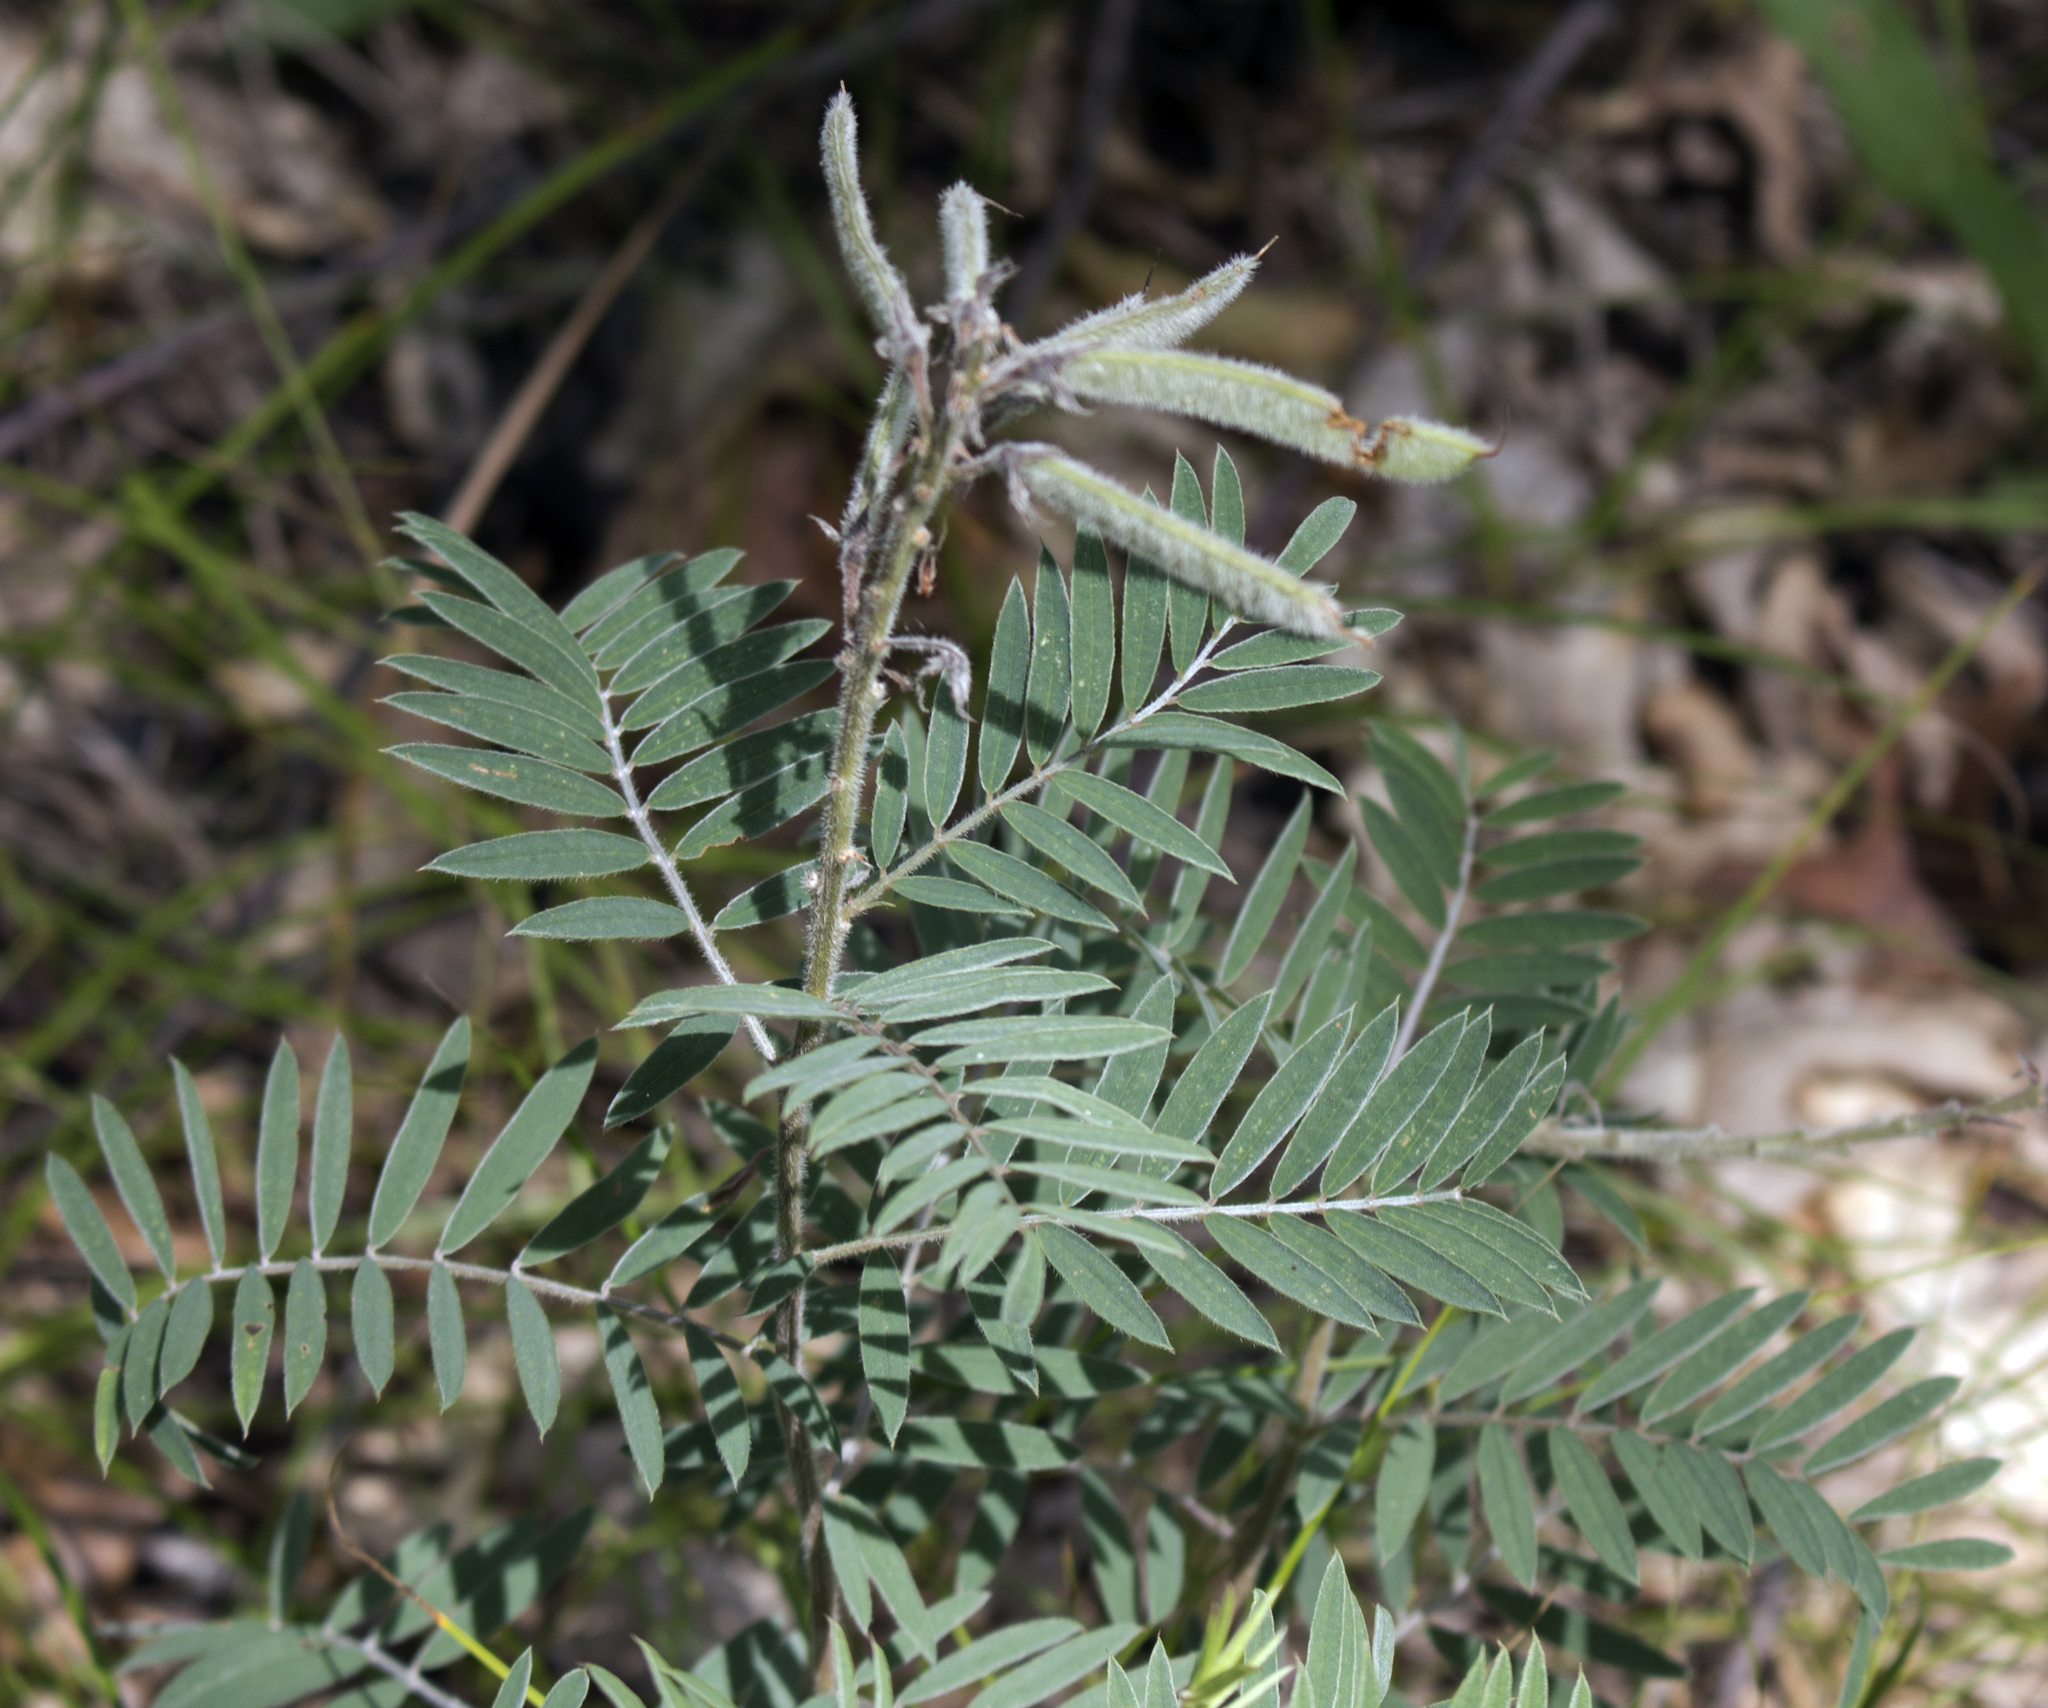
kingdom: Plantae
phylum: Tracheophyta
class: Magnoliopsida
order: Fabales
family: Fabaceae
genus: Tephrosia
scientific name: Tephrosia virginiana
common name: Rabbit-pea
